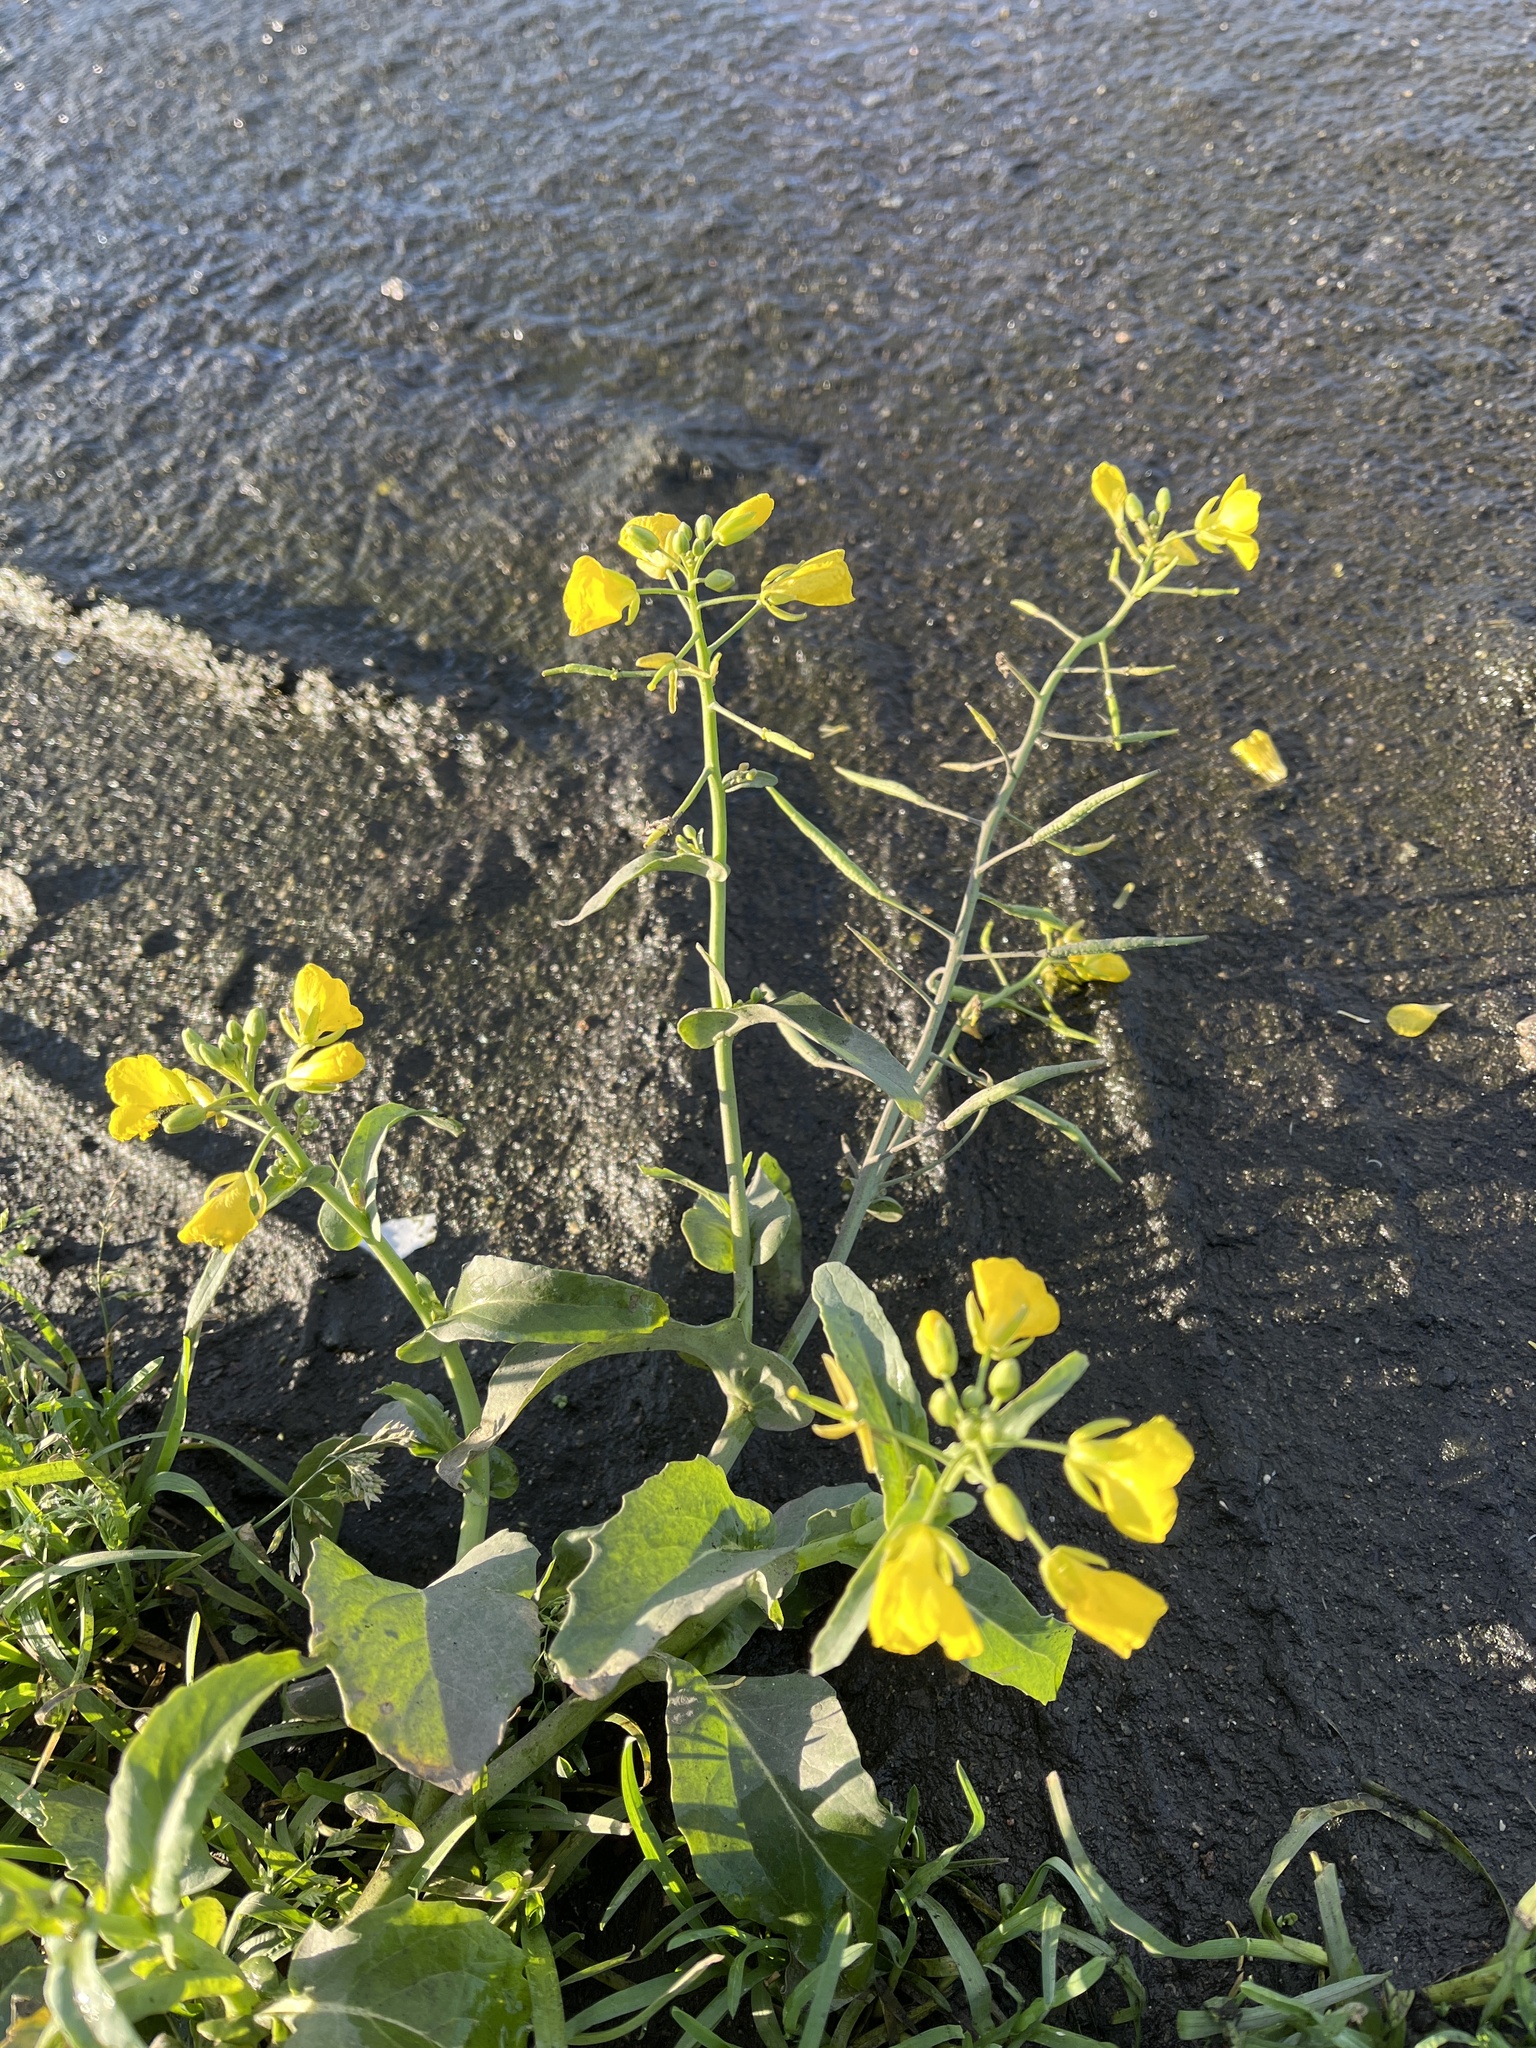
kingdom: Plantae
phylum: Tracheophyta
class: Magnoliopsida
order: Brassicales
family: Brassicaceae
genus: Brassica
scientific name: Brassica napus
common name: Rape
